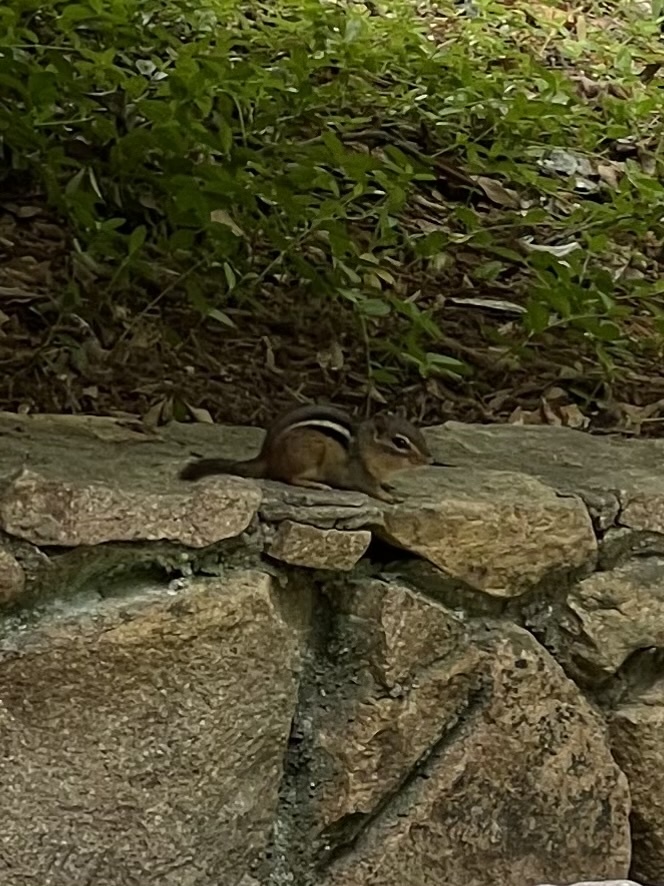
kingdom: Animalia
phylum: Chordata
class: Mammalia
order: Rodentia
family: Sciuridae
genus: Tamias
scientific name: Tamias striatus
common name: Eastern chipmunk
